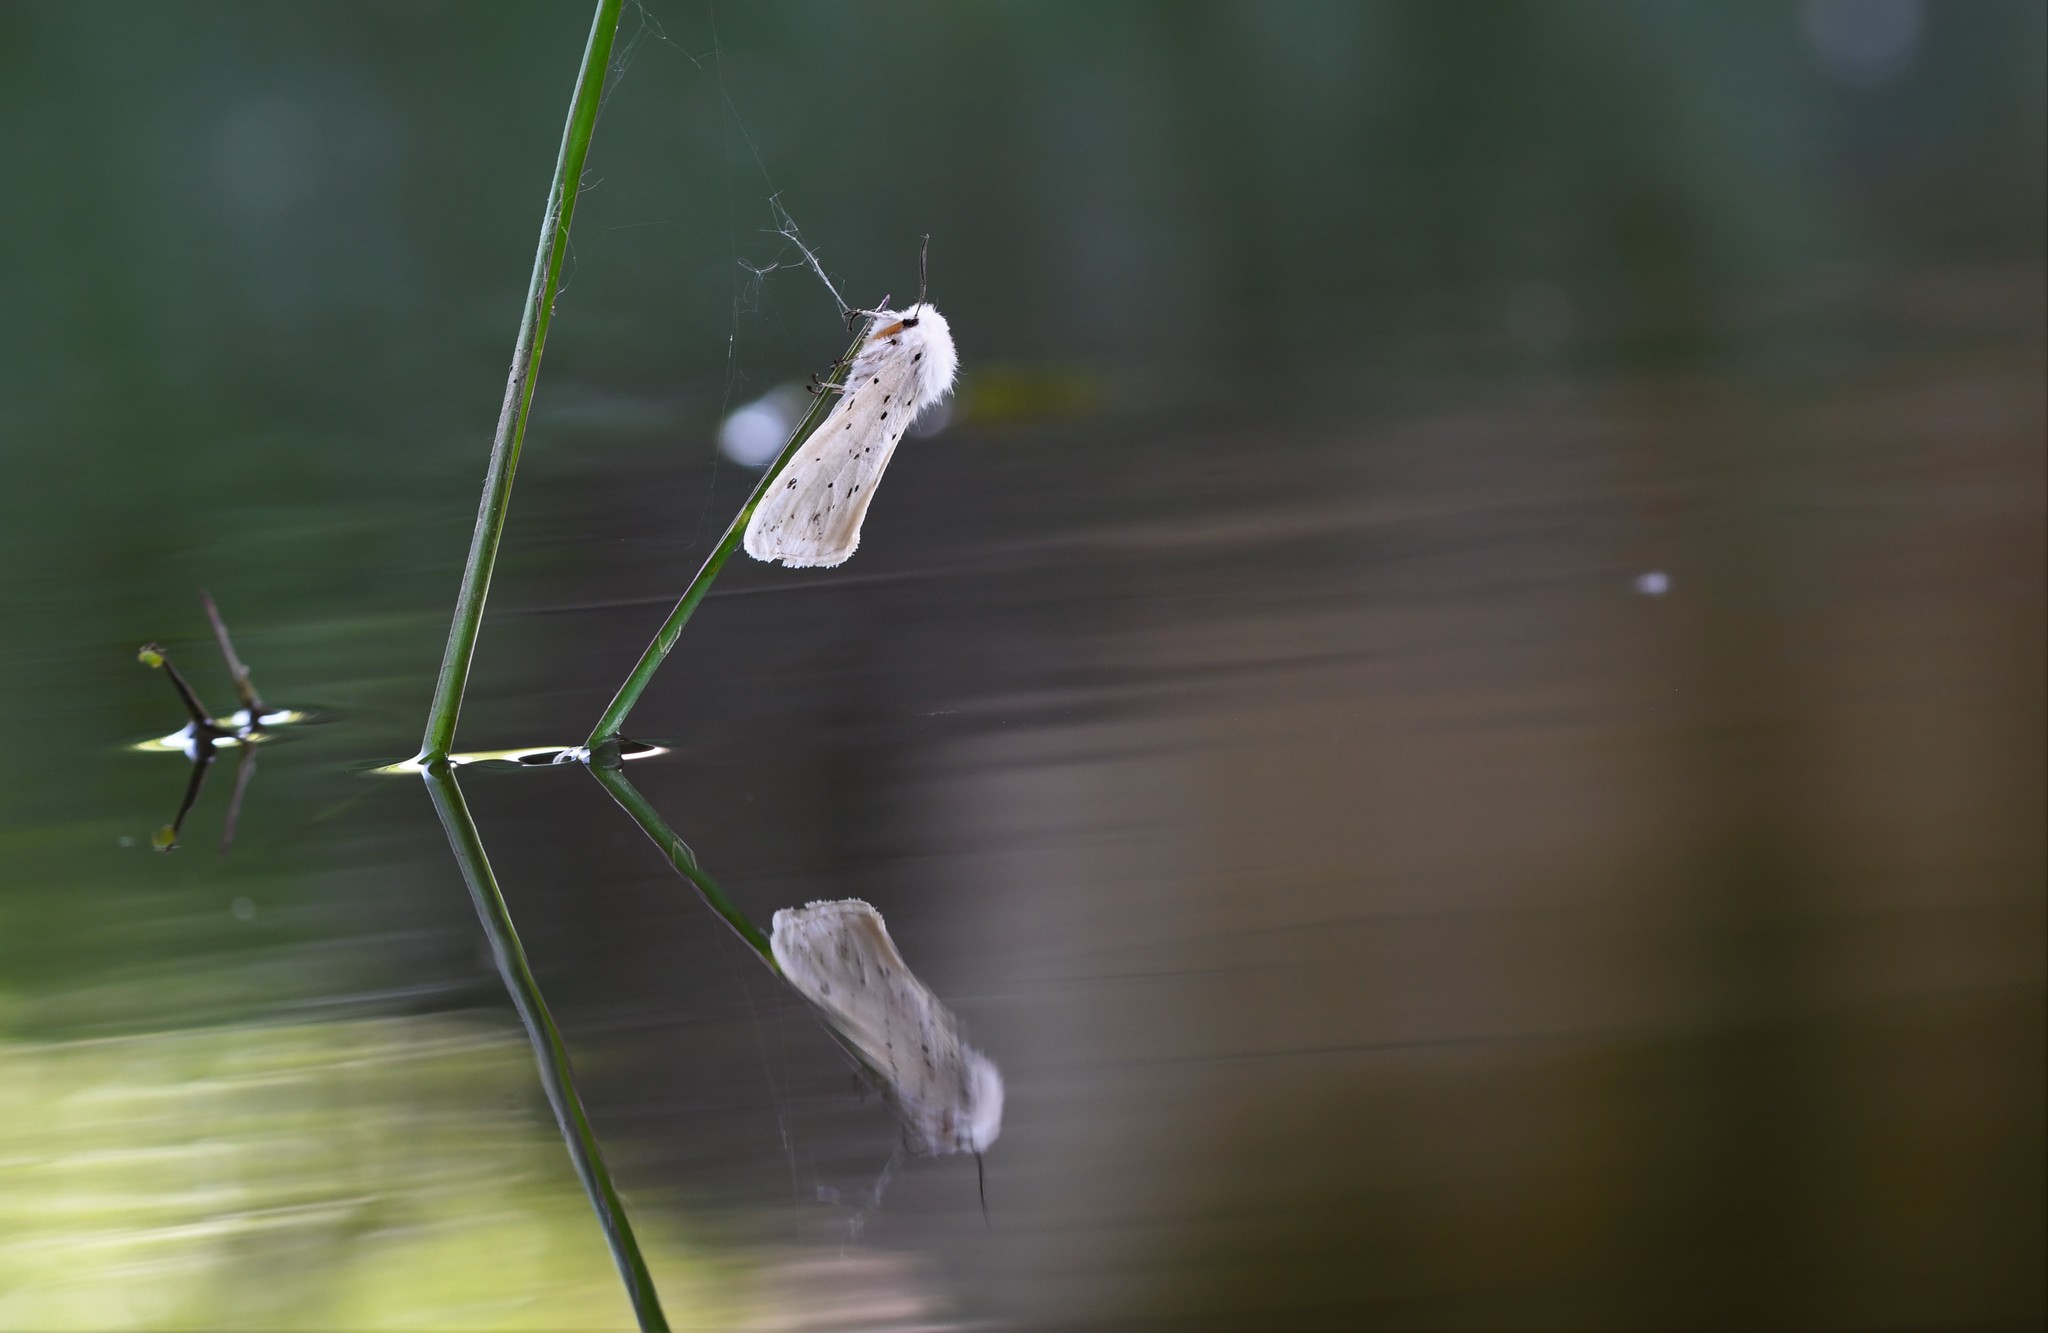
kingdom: Animalia
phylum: Arthropoda
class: Insecta
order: Lepidoptera
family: Erebidae
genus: Spilosoma
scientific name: Spilosoma lubricipeda
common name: White ermine
